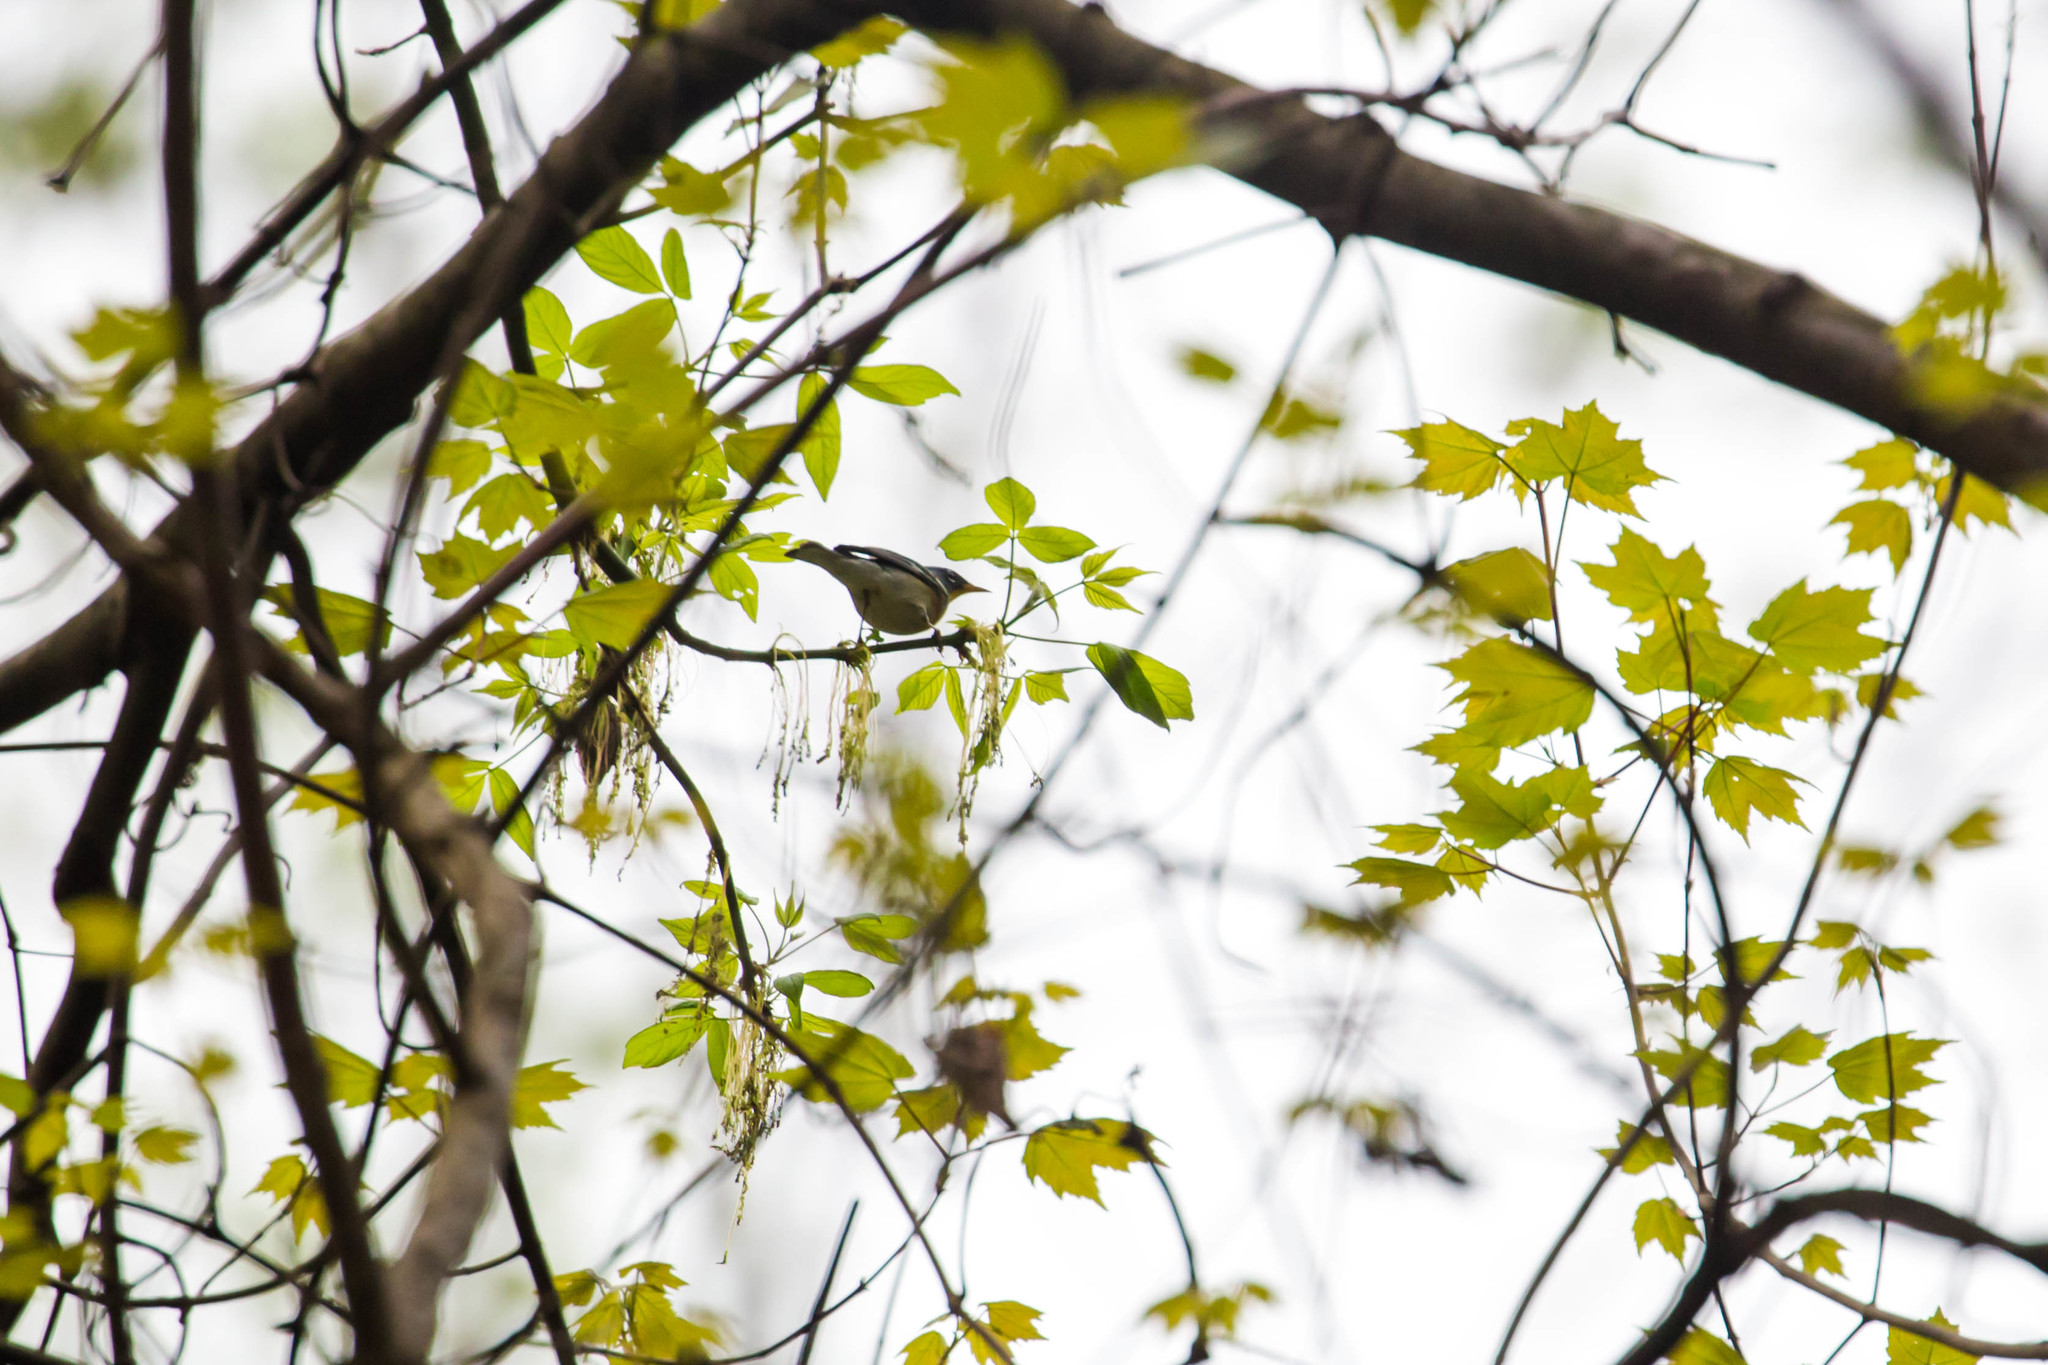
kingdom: Animalia
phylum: Chordata
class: Aves
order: Passeriformes
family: Parulidae
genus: Setophaga
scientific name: Setophaga americana
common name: Northern parula
